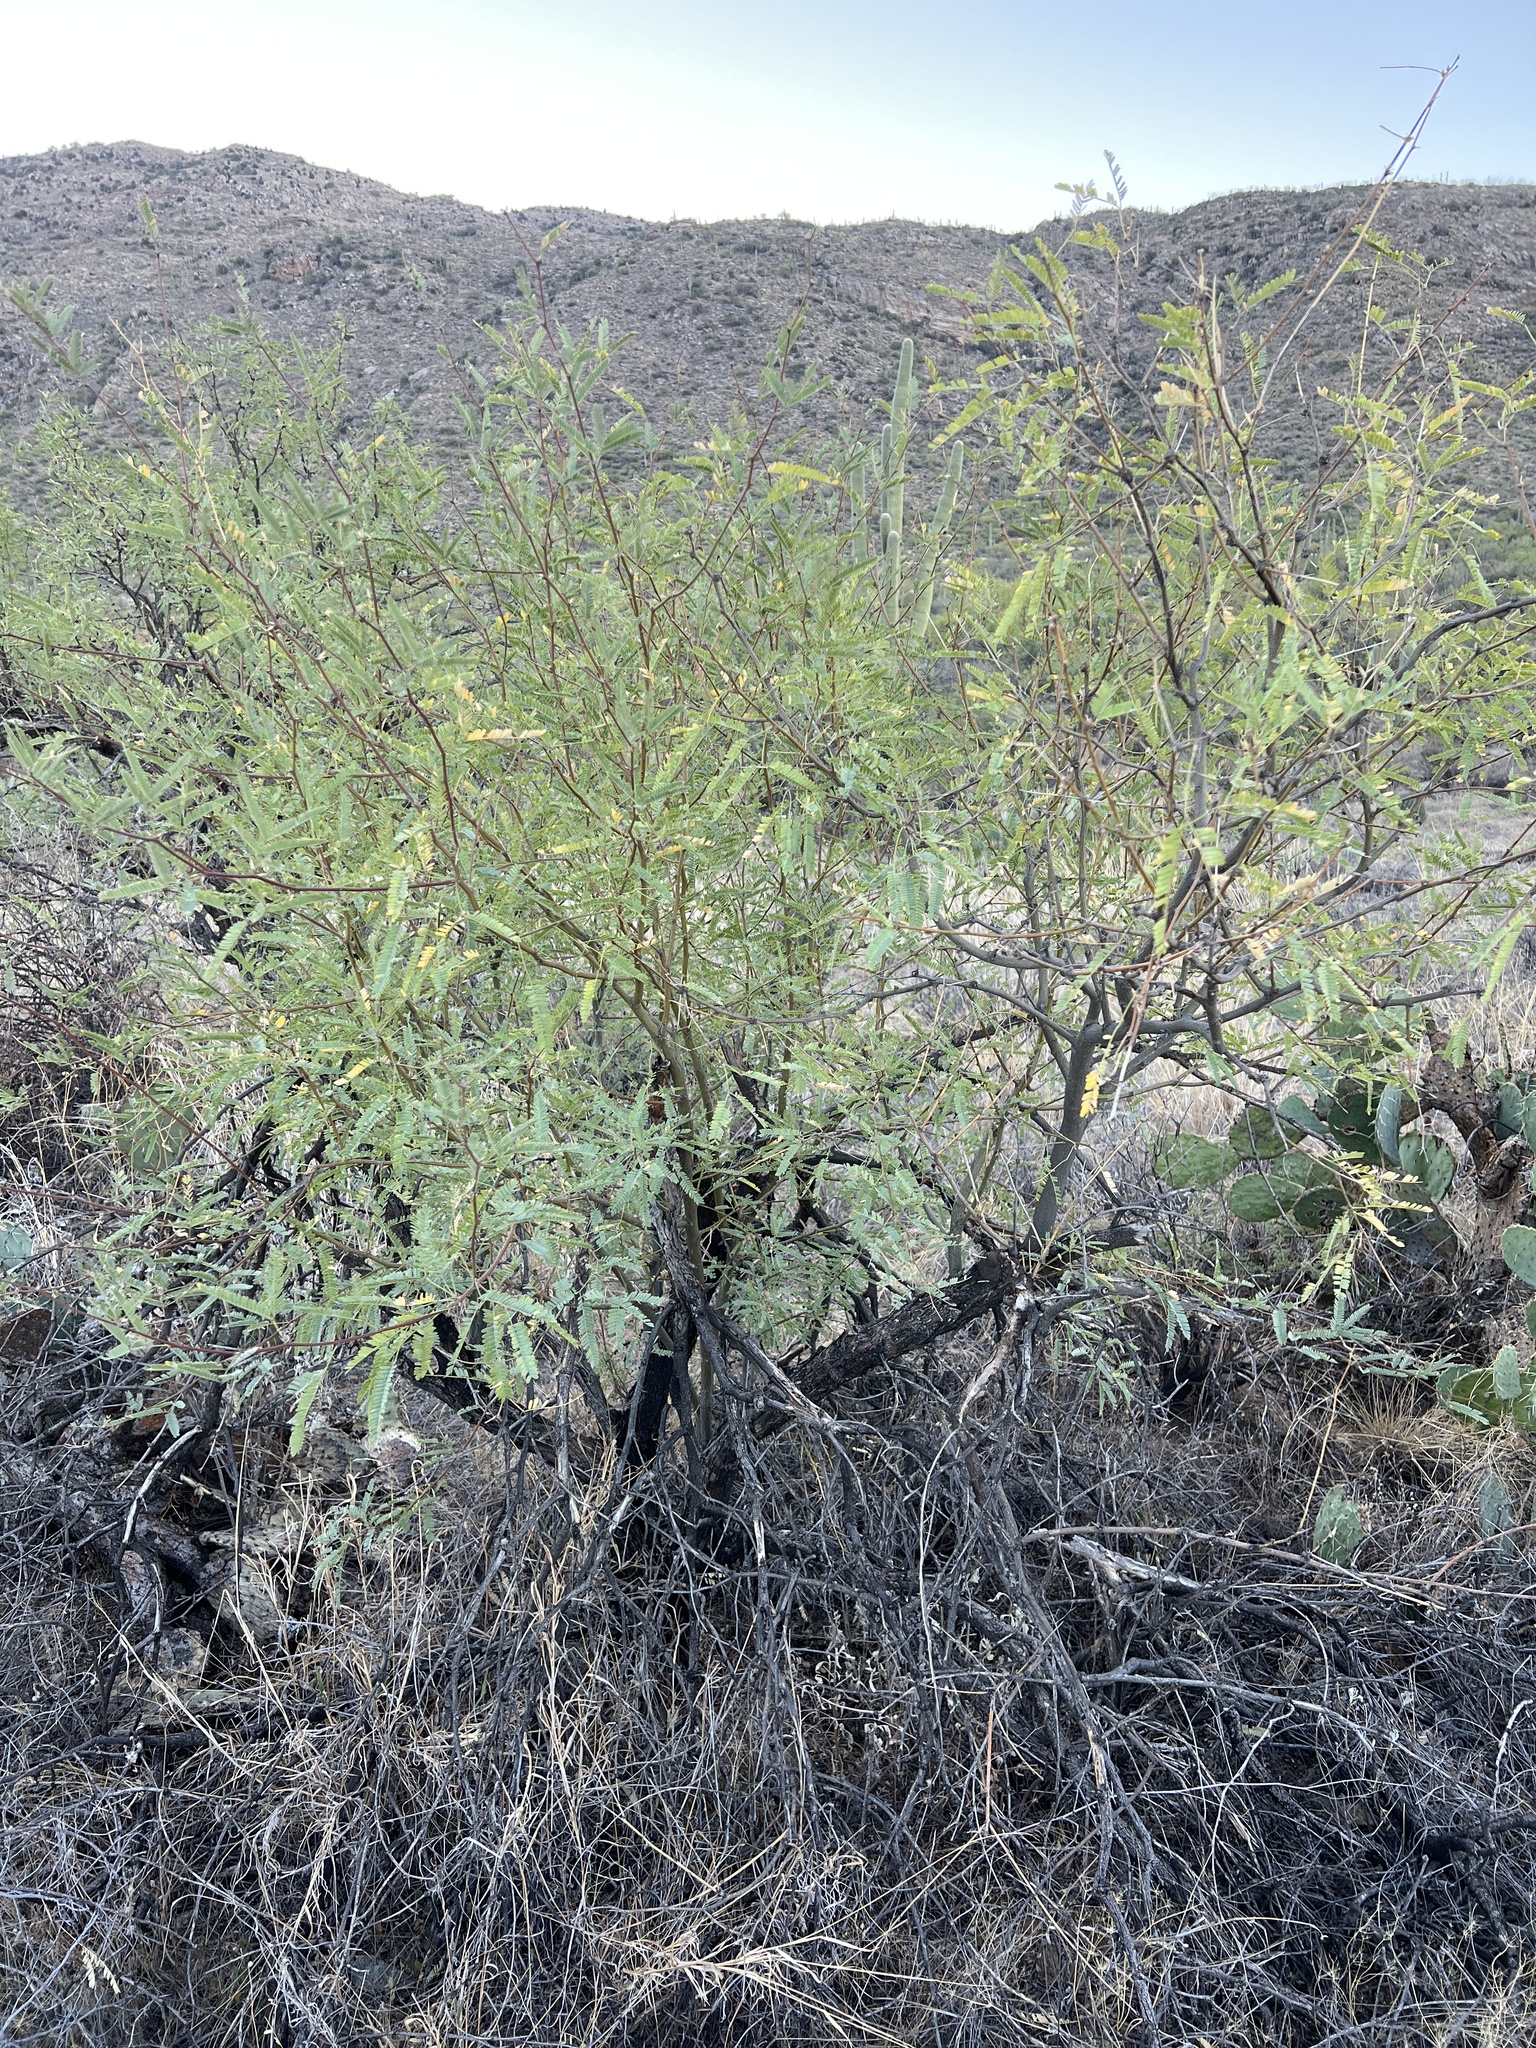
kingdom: Plantae
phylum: Tracheophyta
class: Magnoliopsida
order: Fabales
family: Fabaceae
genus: Prosopis
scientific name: Prosopis velutina
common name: Velvet mesquite
